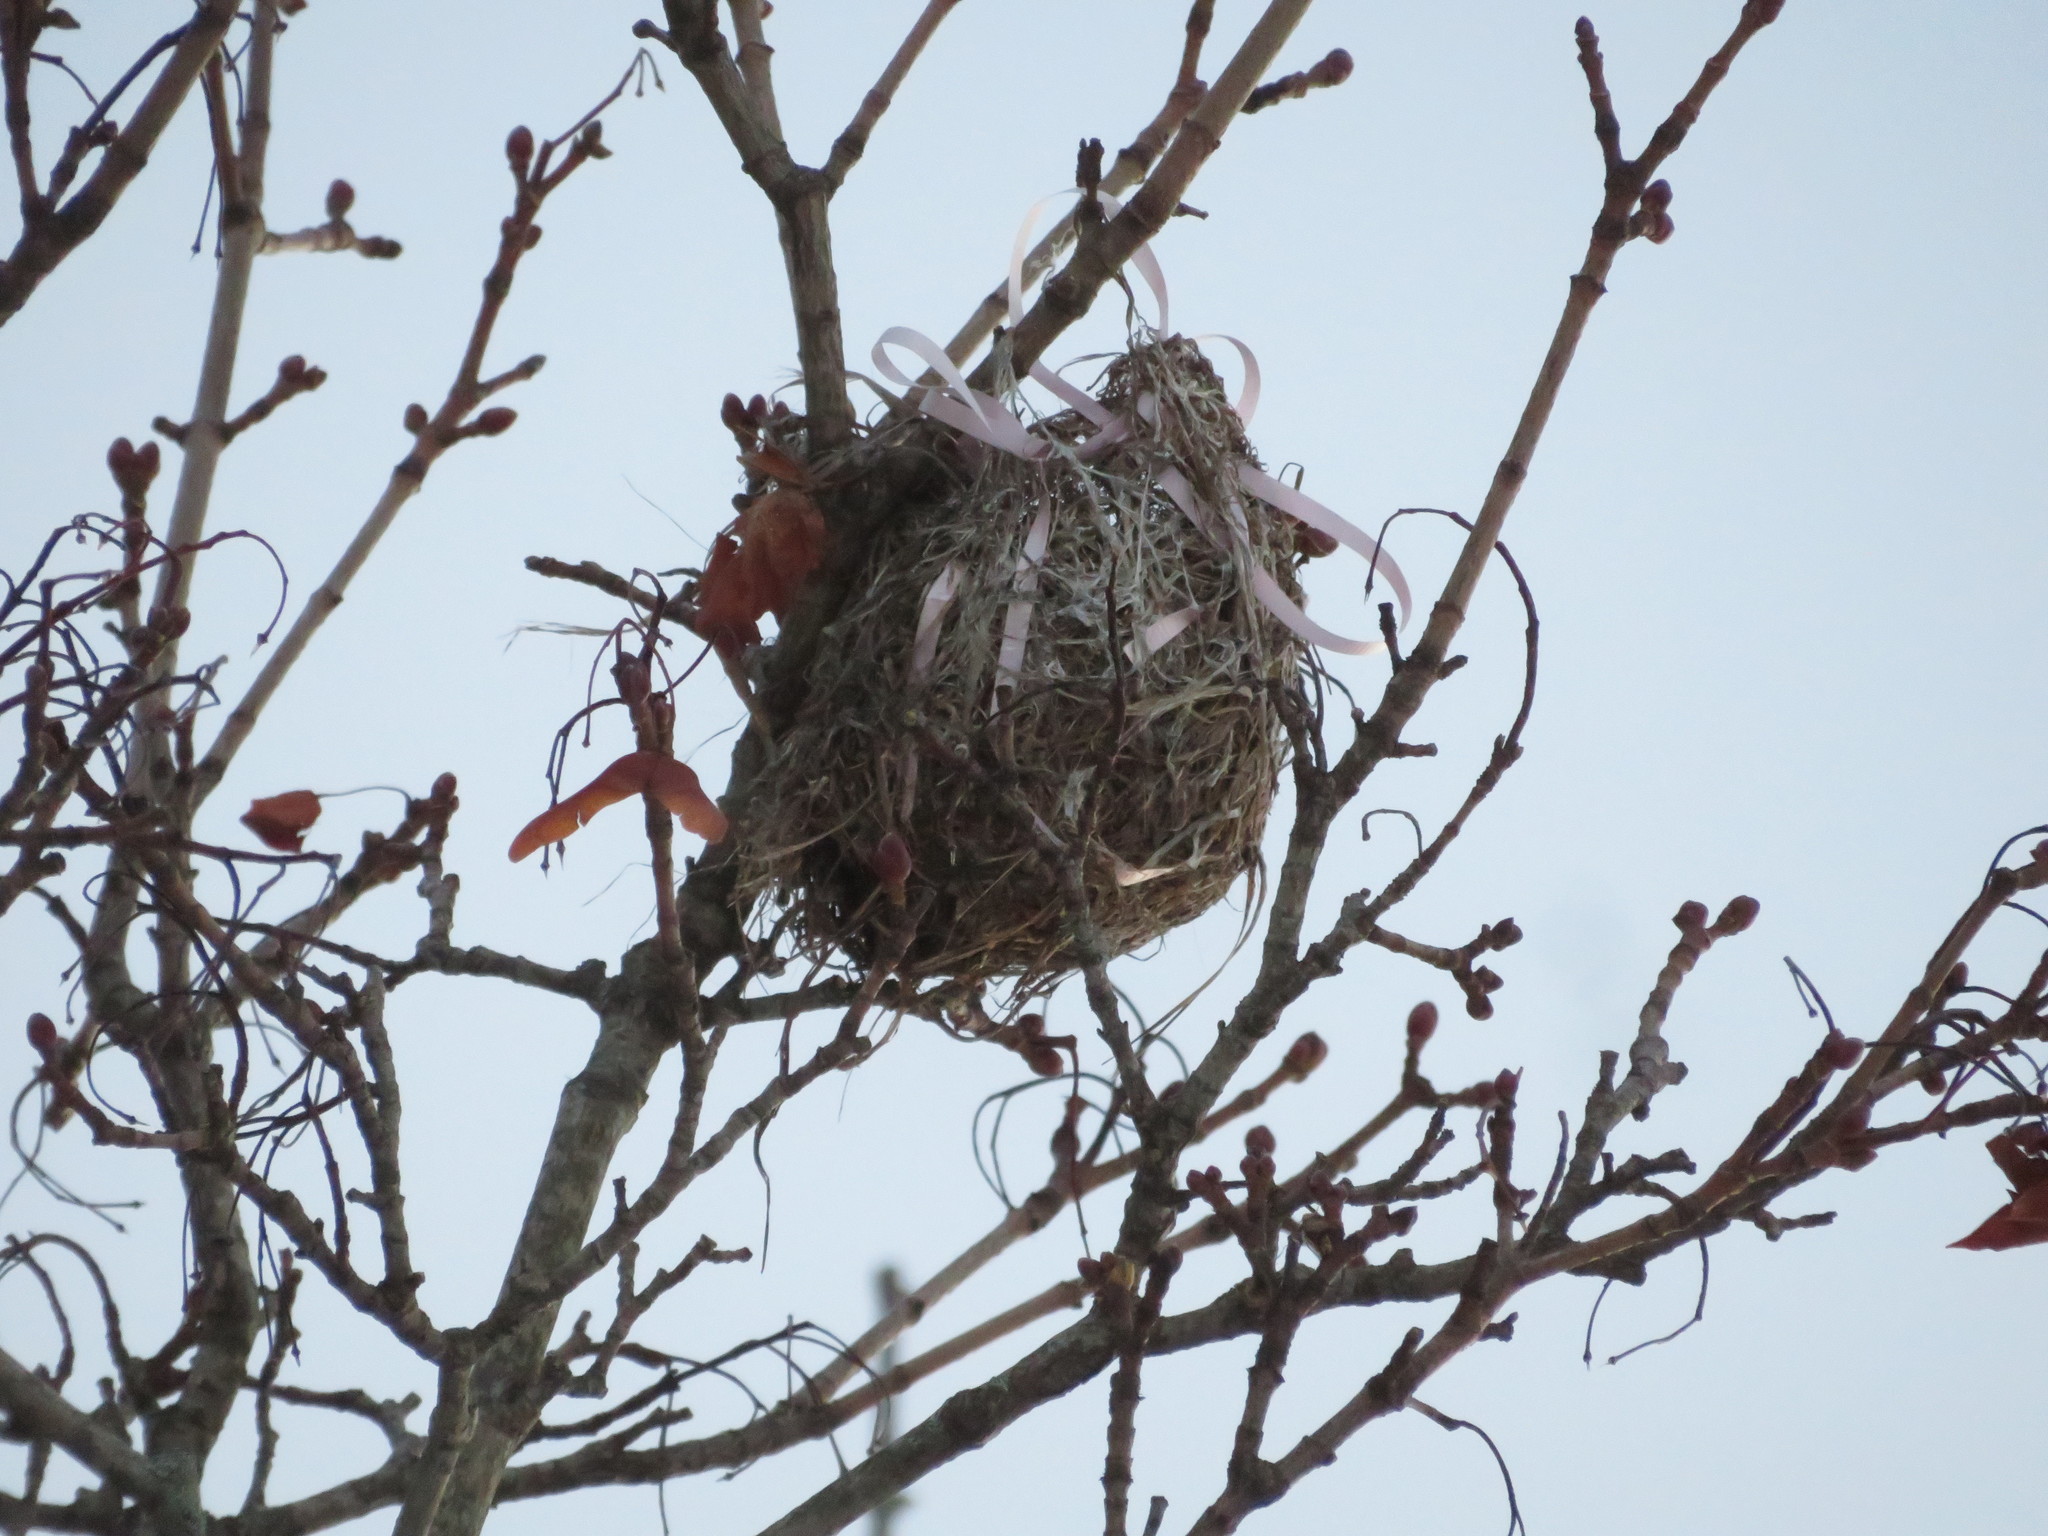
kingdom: Animalia
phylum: Chordata
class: Aves
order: Passeriformes
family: Icteridae
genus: Icterus
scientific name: Icterus galbula
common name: Baltimore oriole
